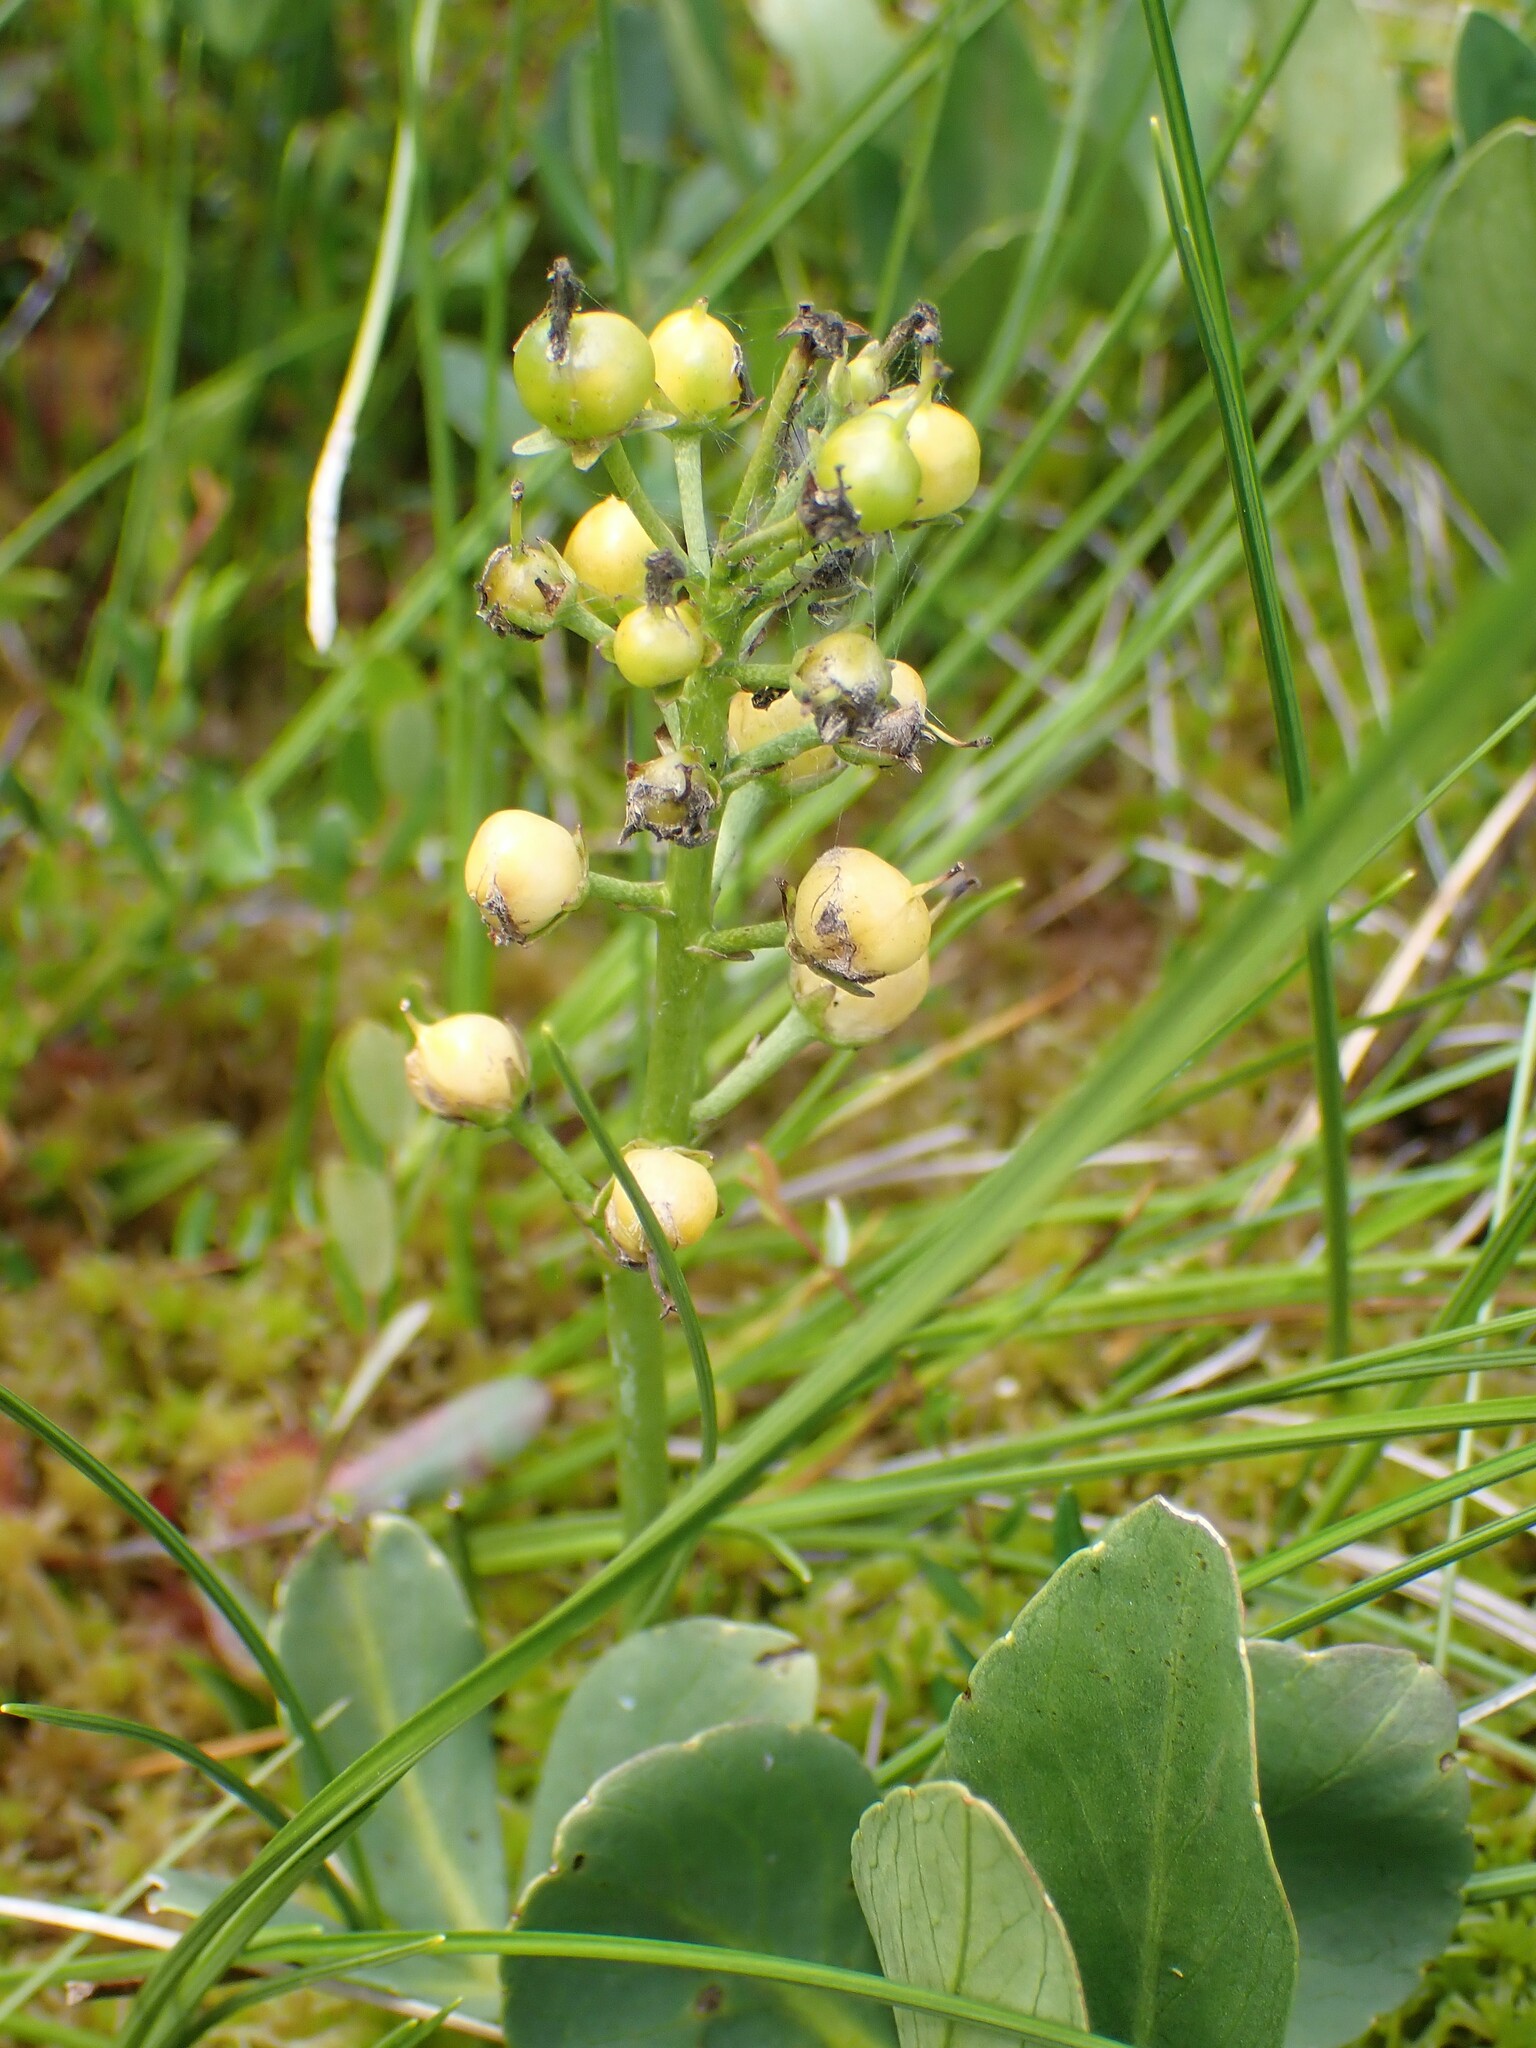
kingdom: Plantae
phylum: Tracheophyta
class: Magnoliopsida
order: Asterales
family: Menyanthaceae
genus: Menyanthes
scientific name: Menyanthes trifoliata
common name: Bogbean
